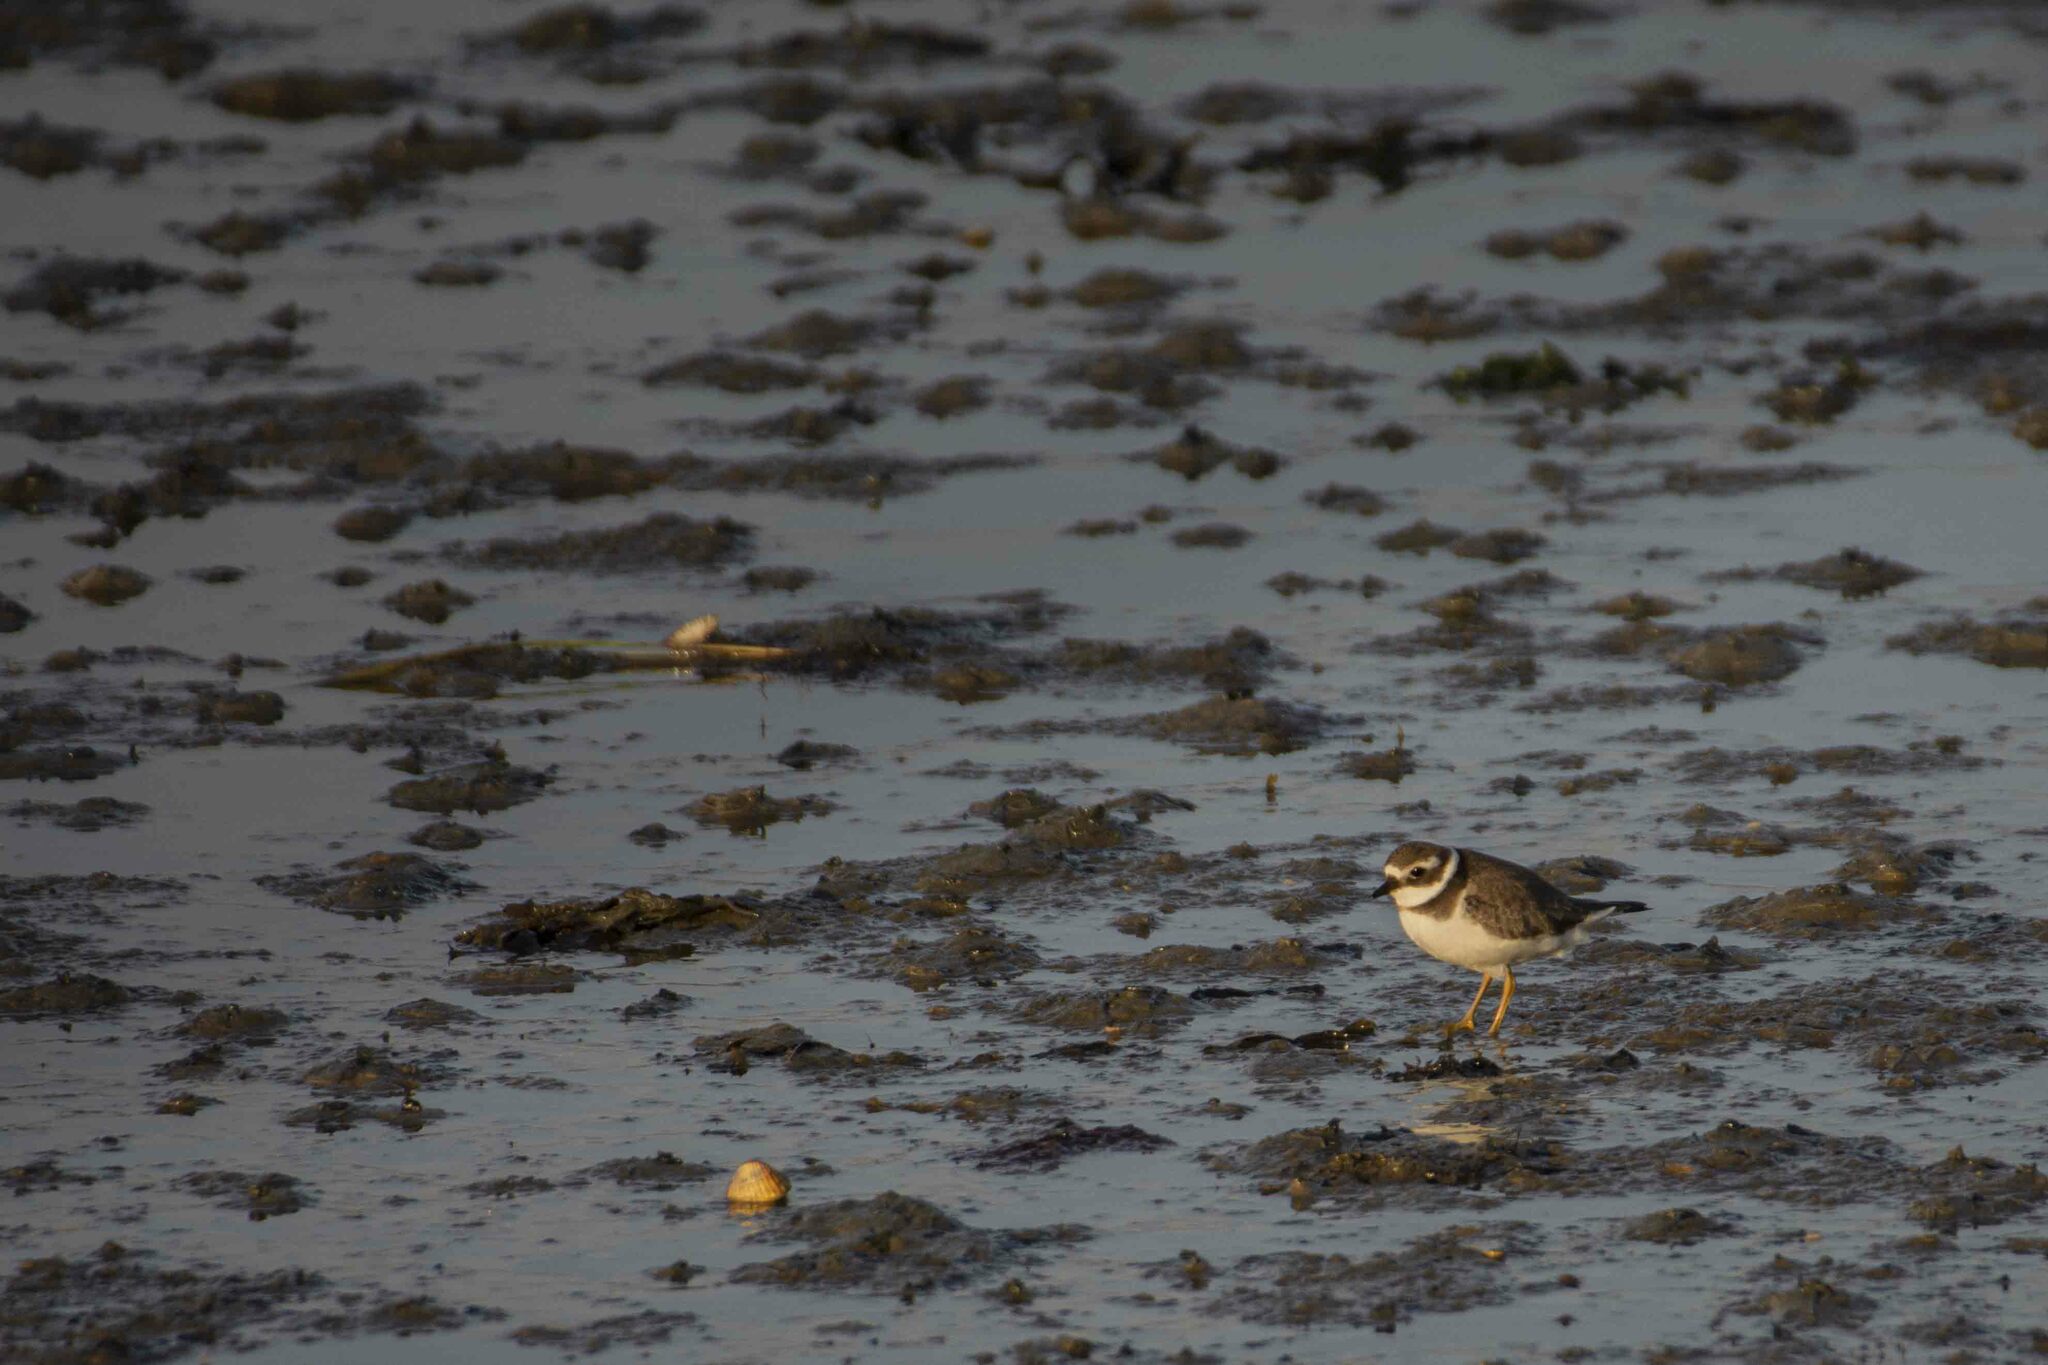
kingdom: Animalia
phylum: Chordata
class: Aves
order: Charadriiformes
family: Charadriidae
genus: Charadrius
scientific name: Charadrius hiaticula
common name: Common ringed plover
